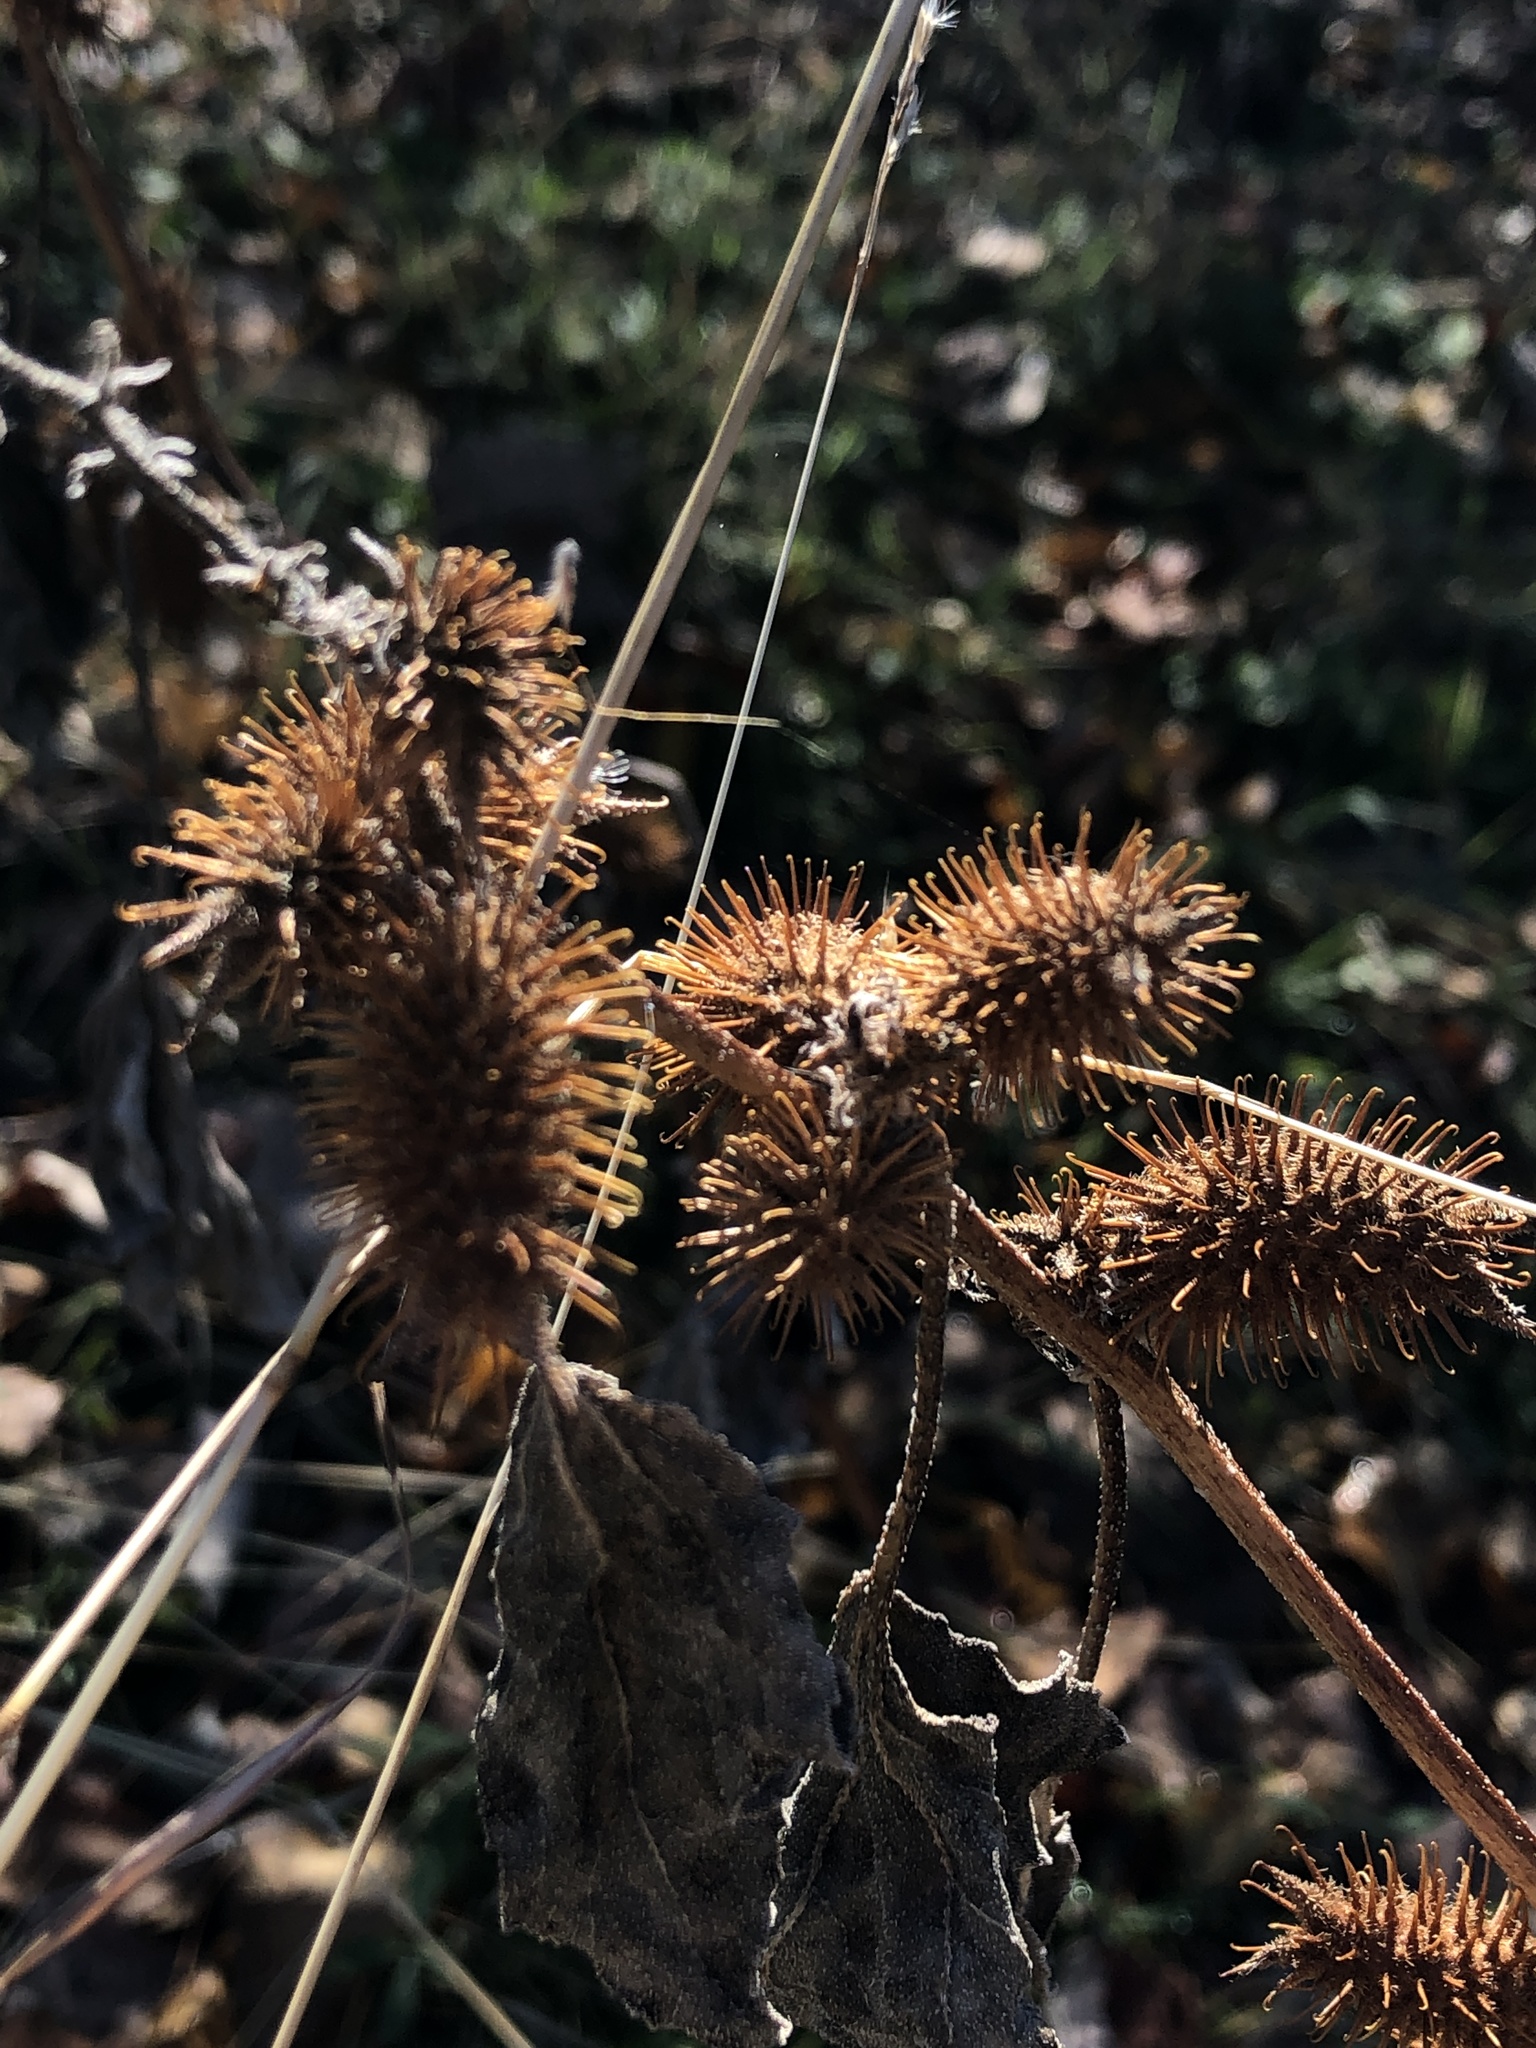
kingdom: Plantae
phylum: Tracheophyta
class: Magnoliopsida
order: Asterales
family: Asteraceae
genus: Xanthium
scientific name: Xanthium strumarium
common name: Rough cocklebur
